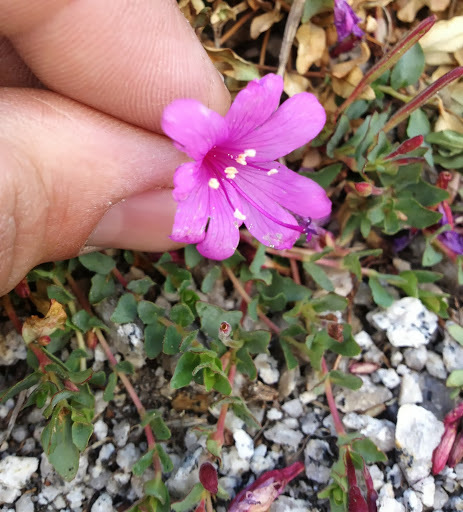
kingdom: Plantae
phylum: Tracheophyta
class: Magnoliopsida
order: Myrtales
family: Onagraceae
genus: Epilobium
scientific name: Epilobium obcordatum
